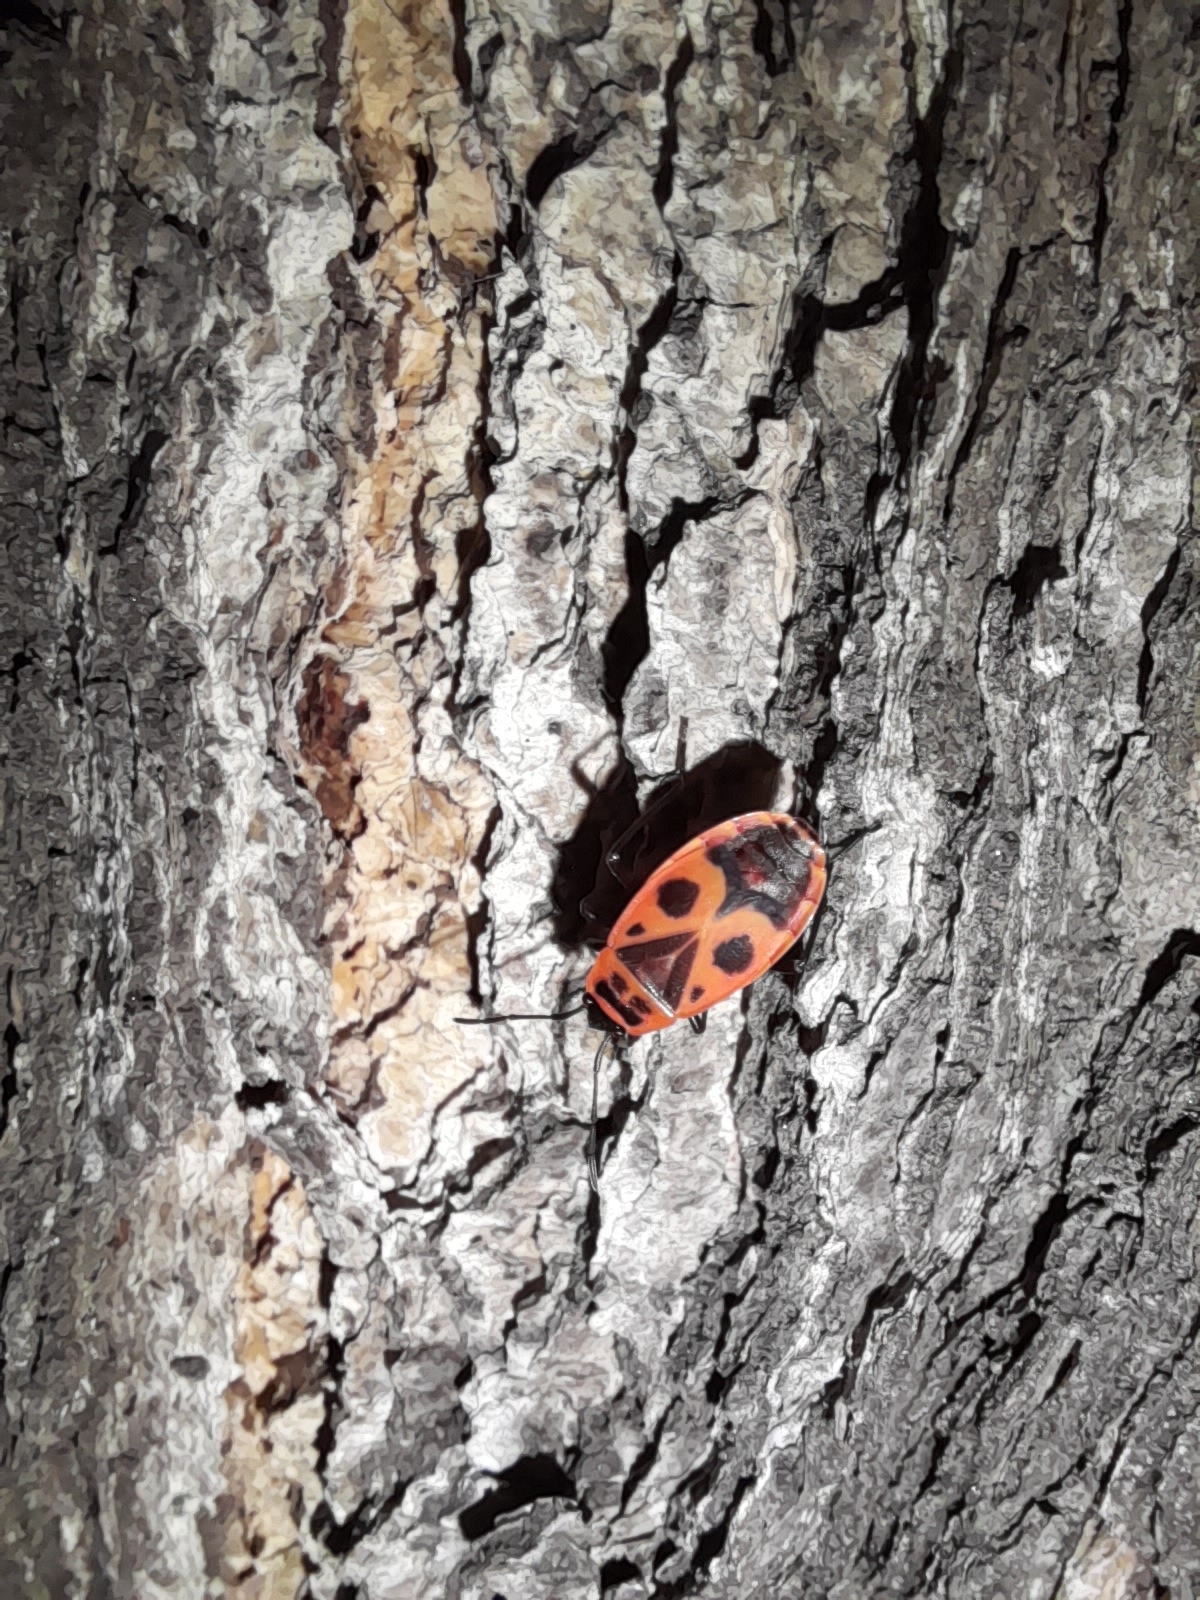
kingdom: Animalia
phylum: Arthropoda
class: Insecta
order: Hemiptera
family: Pyrrhocoridae
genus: Pyrrhocoris
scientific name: Pyrrhocoris apterus
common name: Firebug
